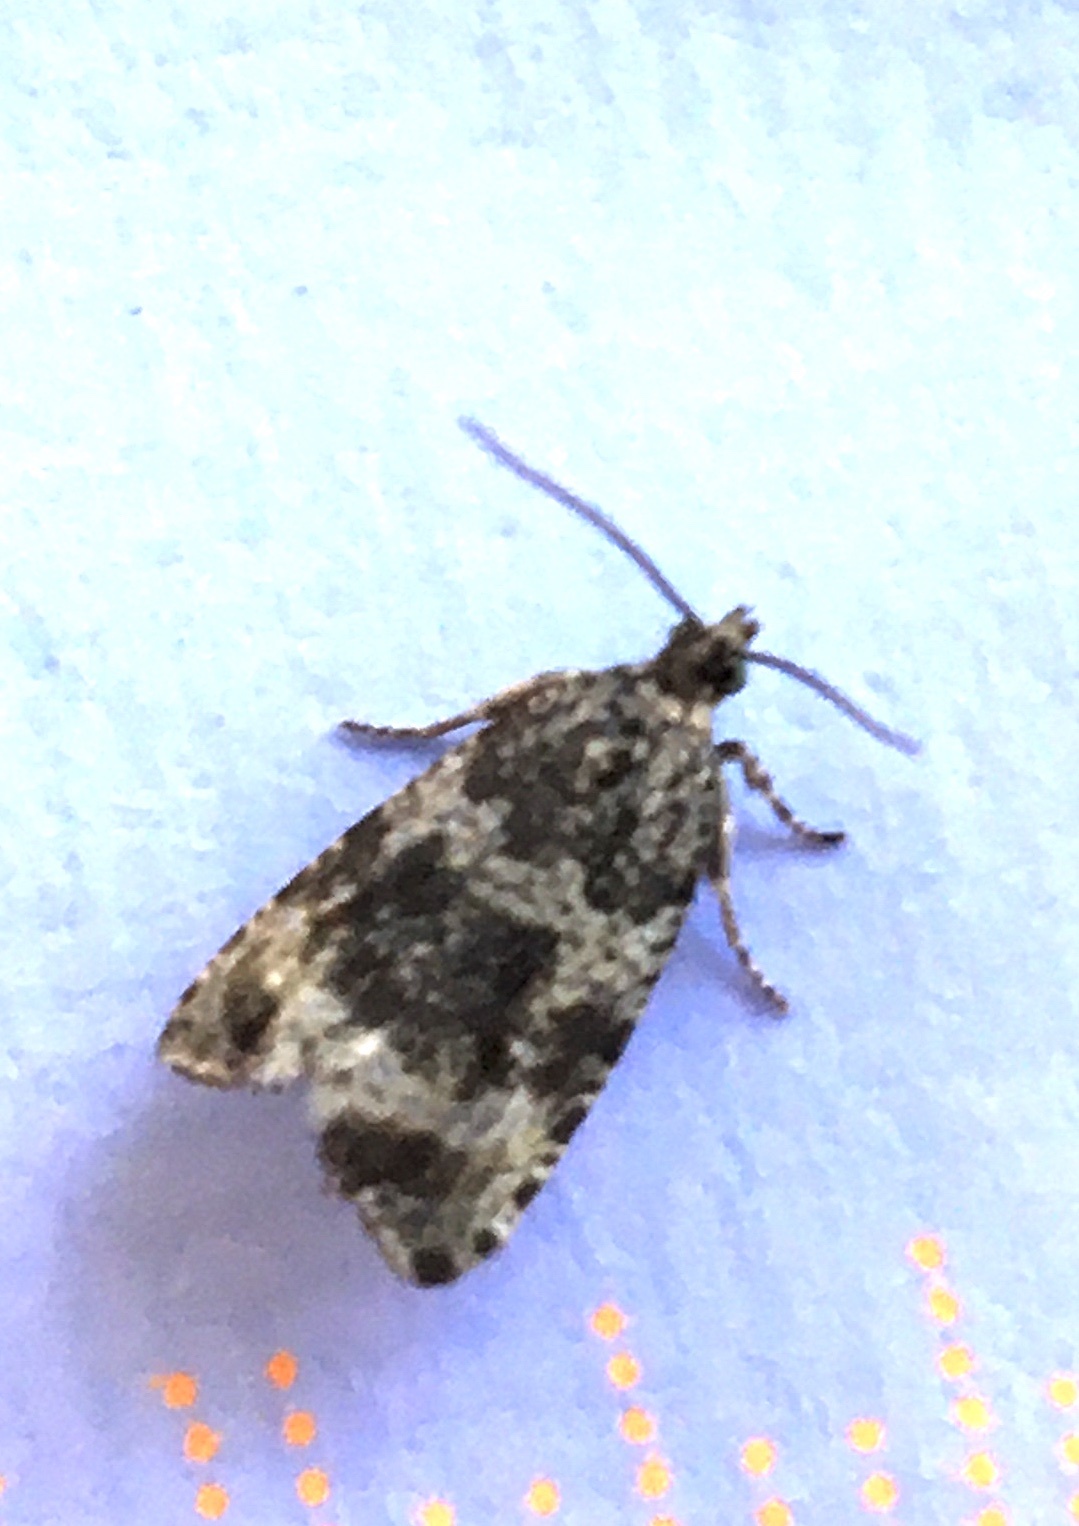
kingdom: Animalia
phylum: Arthropoda
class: Insecta
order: Lepidoptera
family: Tortricidae
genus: Syricoris
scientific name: Syricoris lacunana
